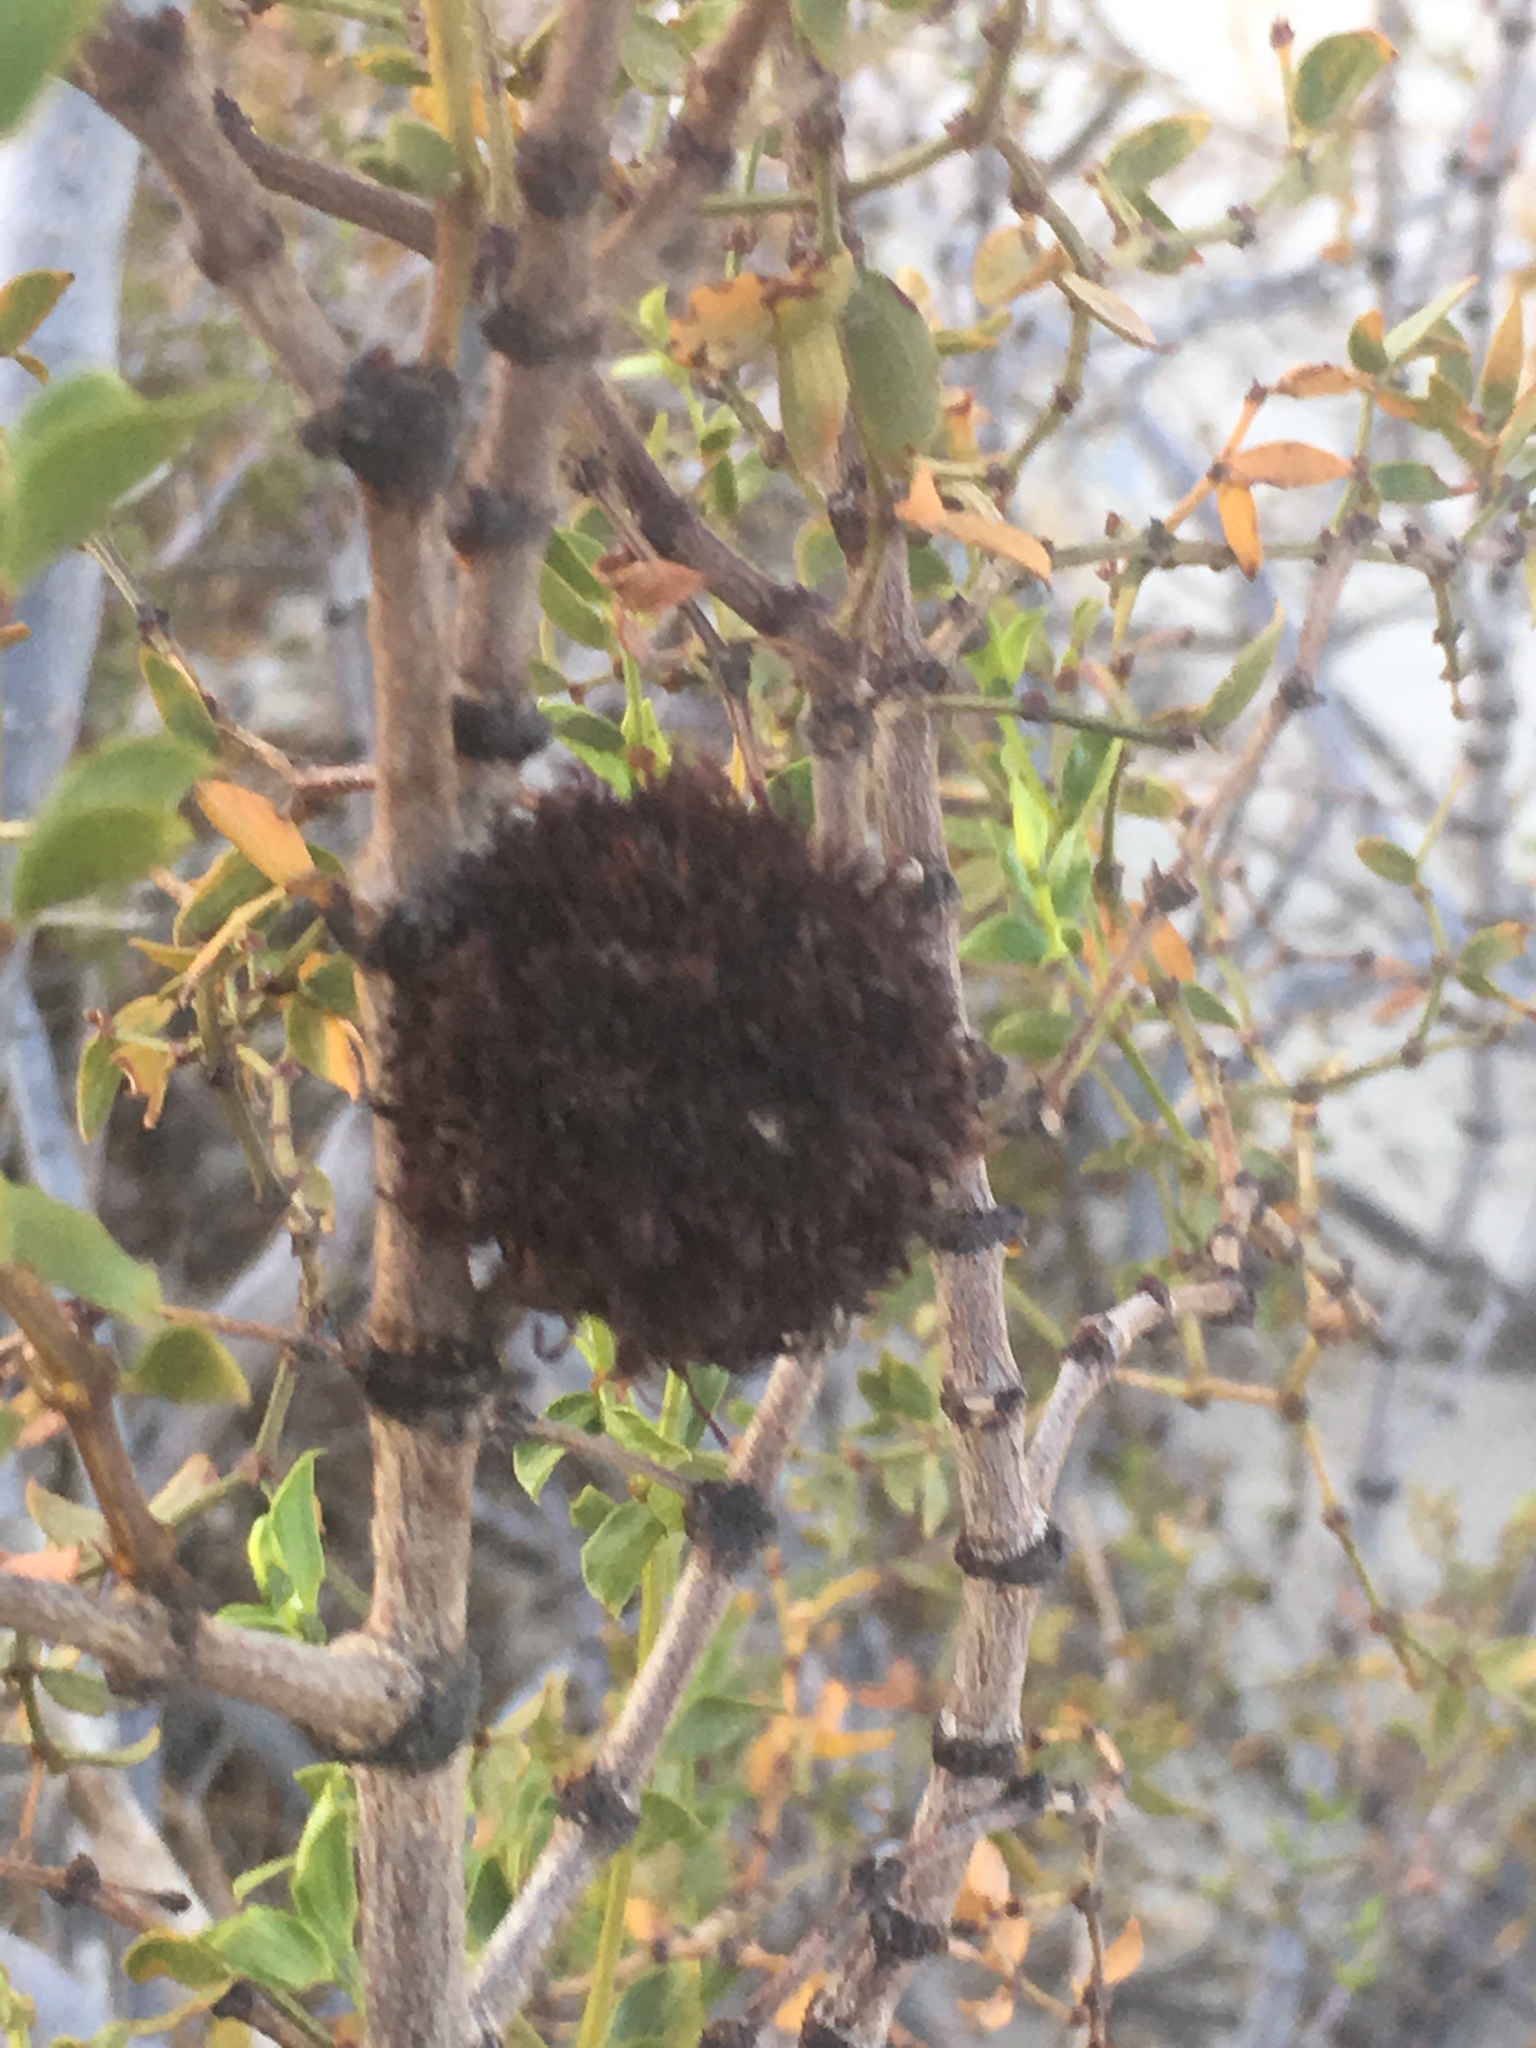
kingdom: Animalia
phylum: Arthropoda
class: Insecta
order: Diptera
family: Cecidomyiidae
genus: Asphondylia
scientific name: Asphondylia auripila
